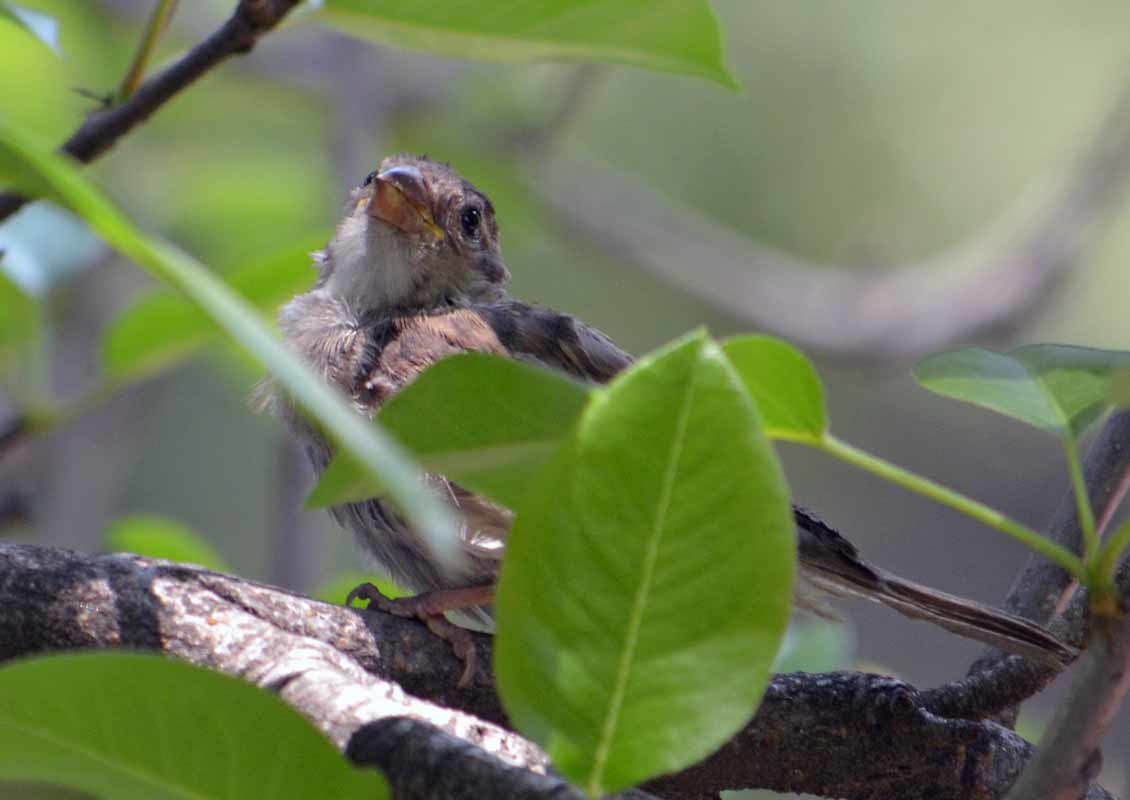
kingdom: Animalia
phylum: Chordata
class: Aves
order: Passeriformes
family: Passeridae
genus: Passer
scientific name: Passer domesticus
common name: House sparrow
